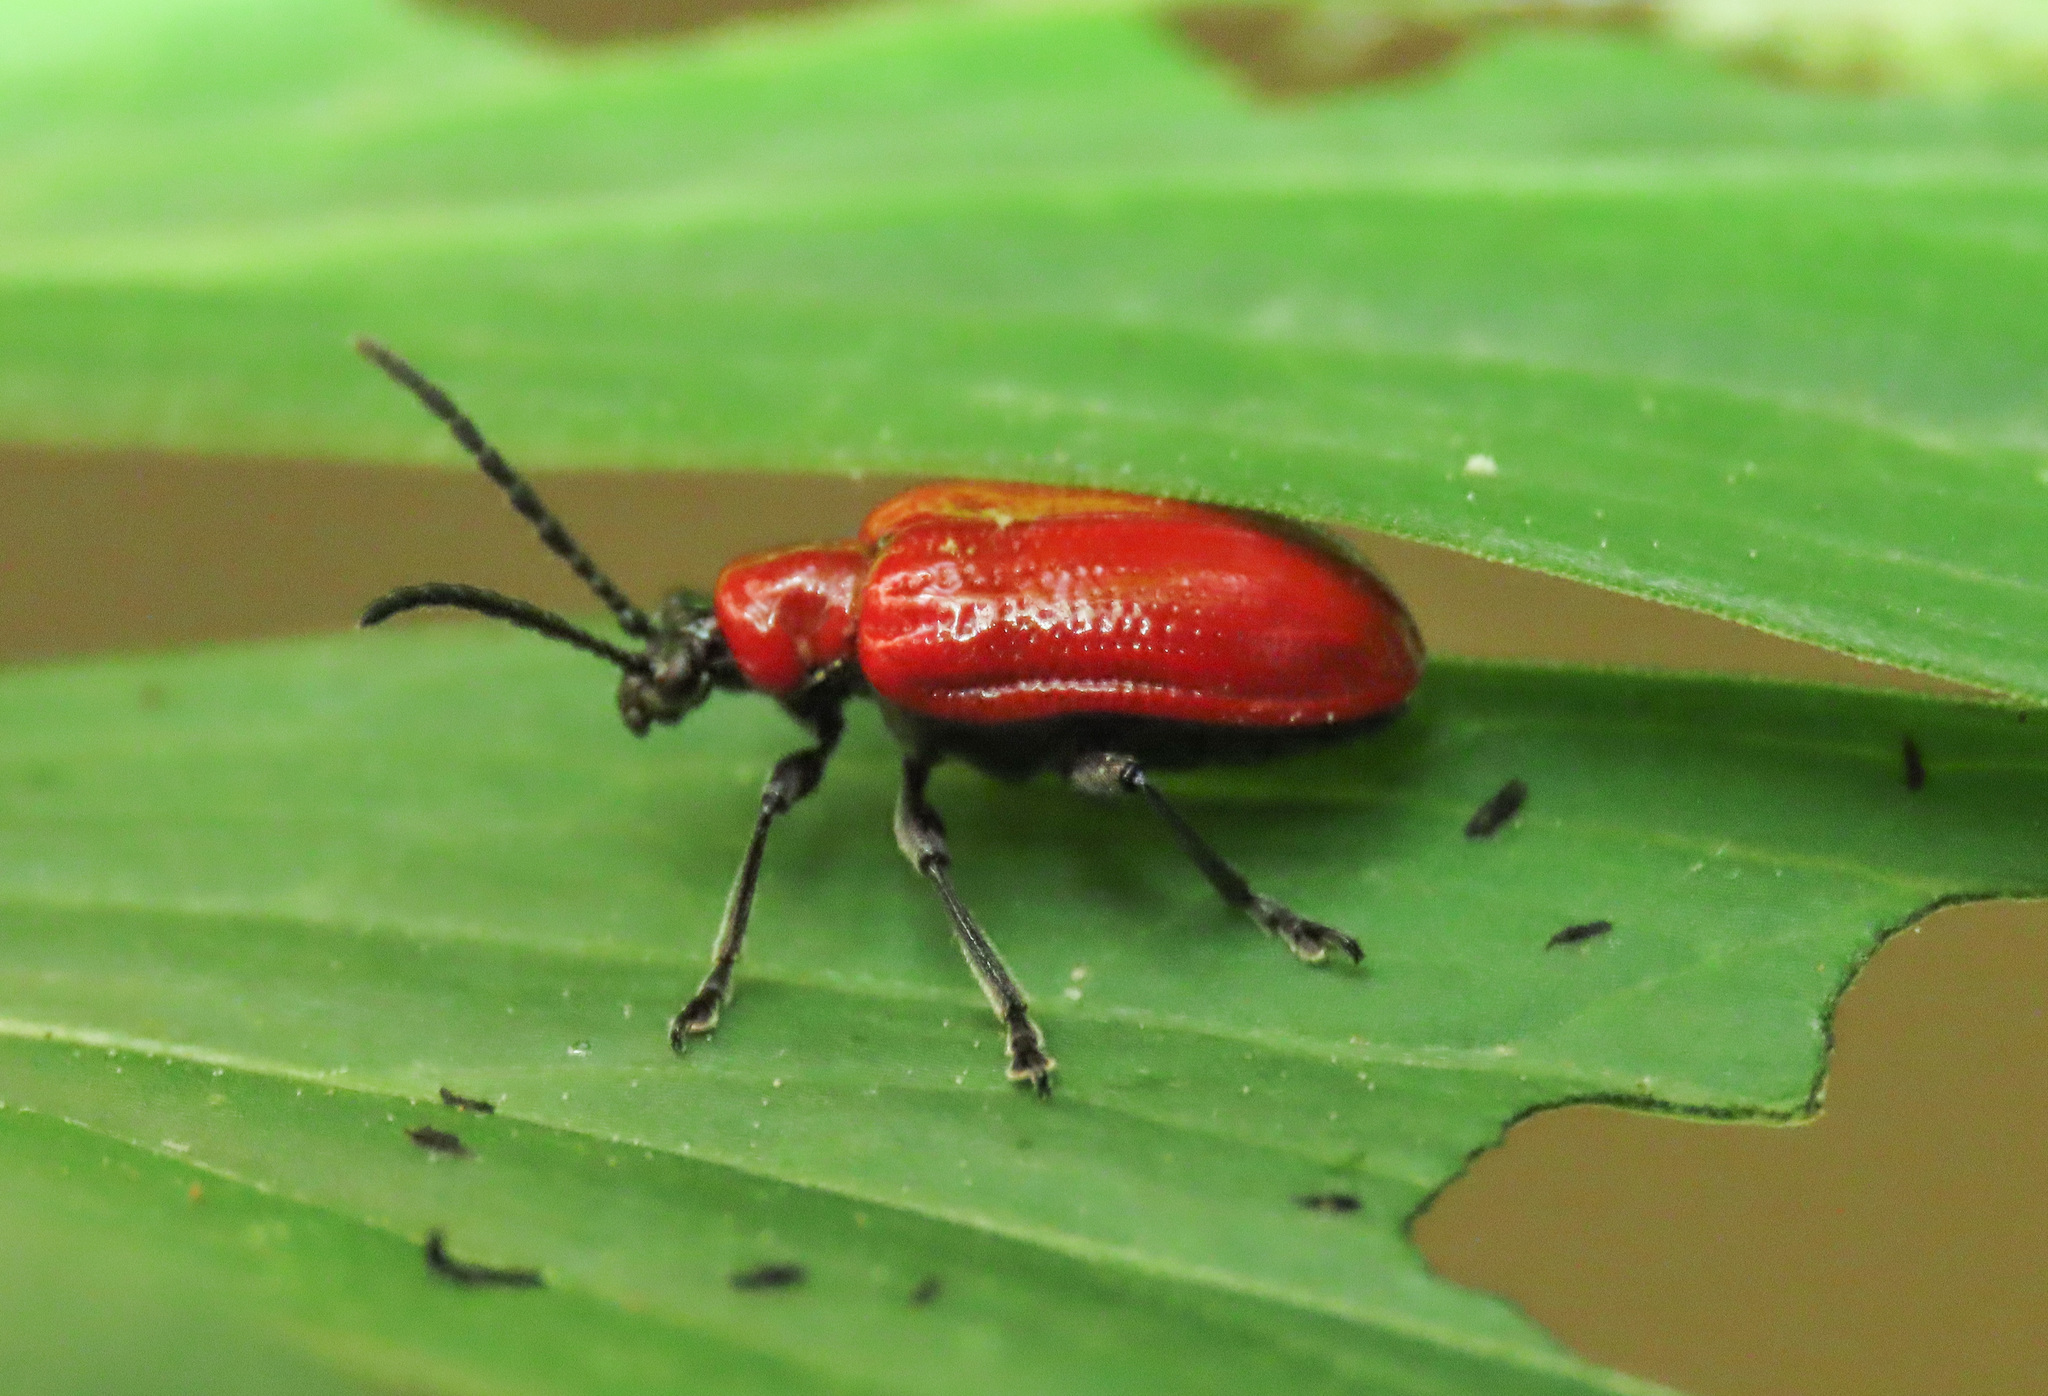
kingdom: Animalia
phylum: Arthropoda
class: Insecta
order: Coleoptera
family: Chrysomelidae
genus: Lilioceris
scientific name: Lilioceris lilii
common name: Lily beetle
